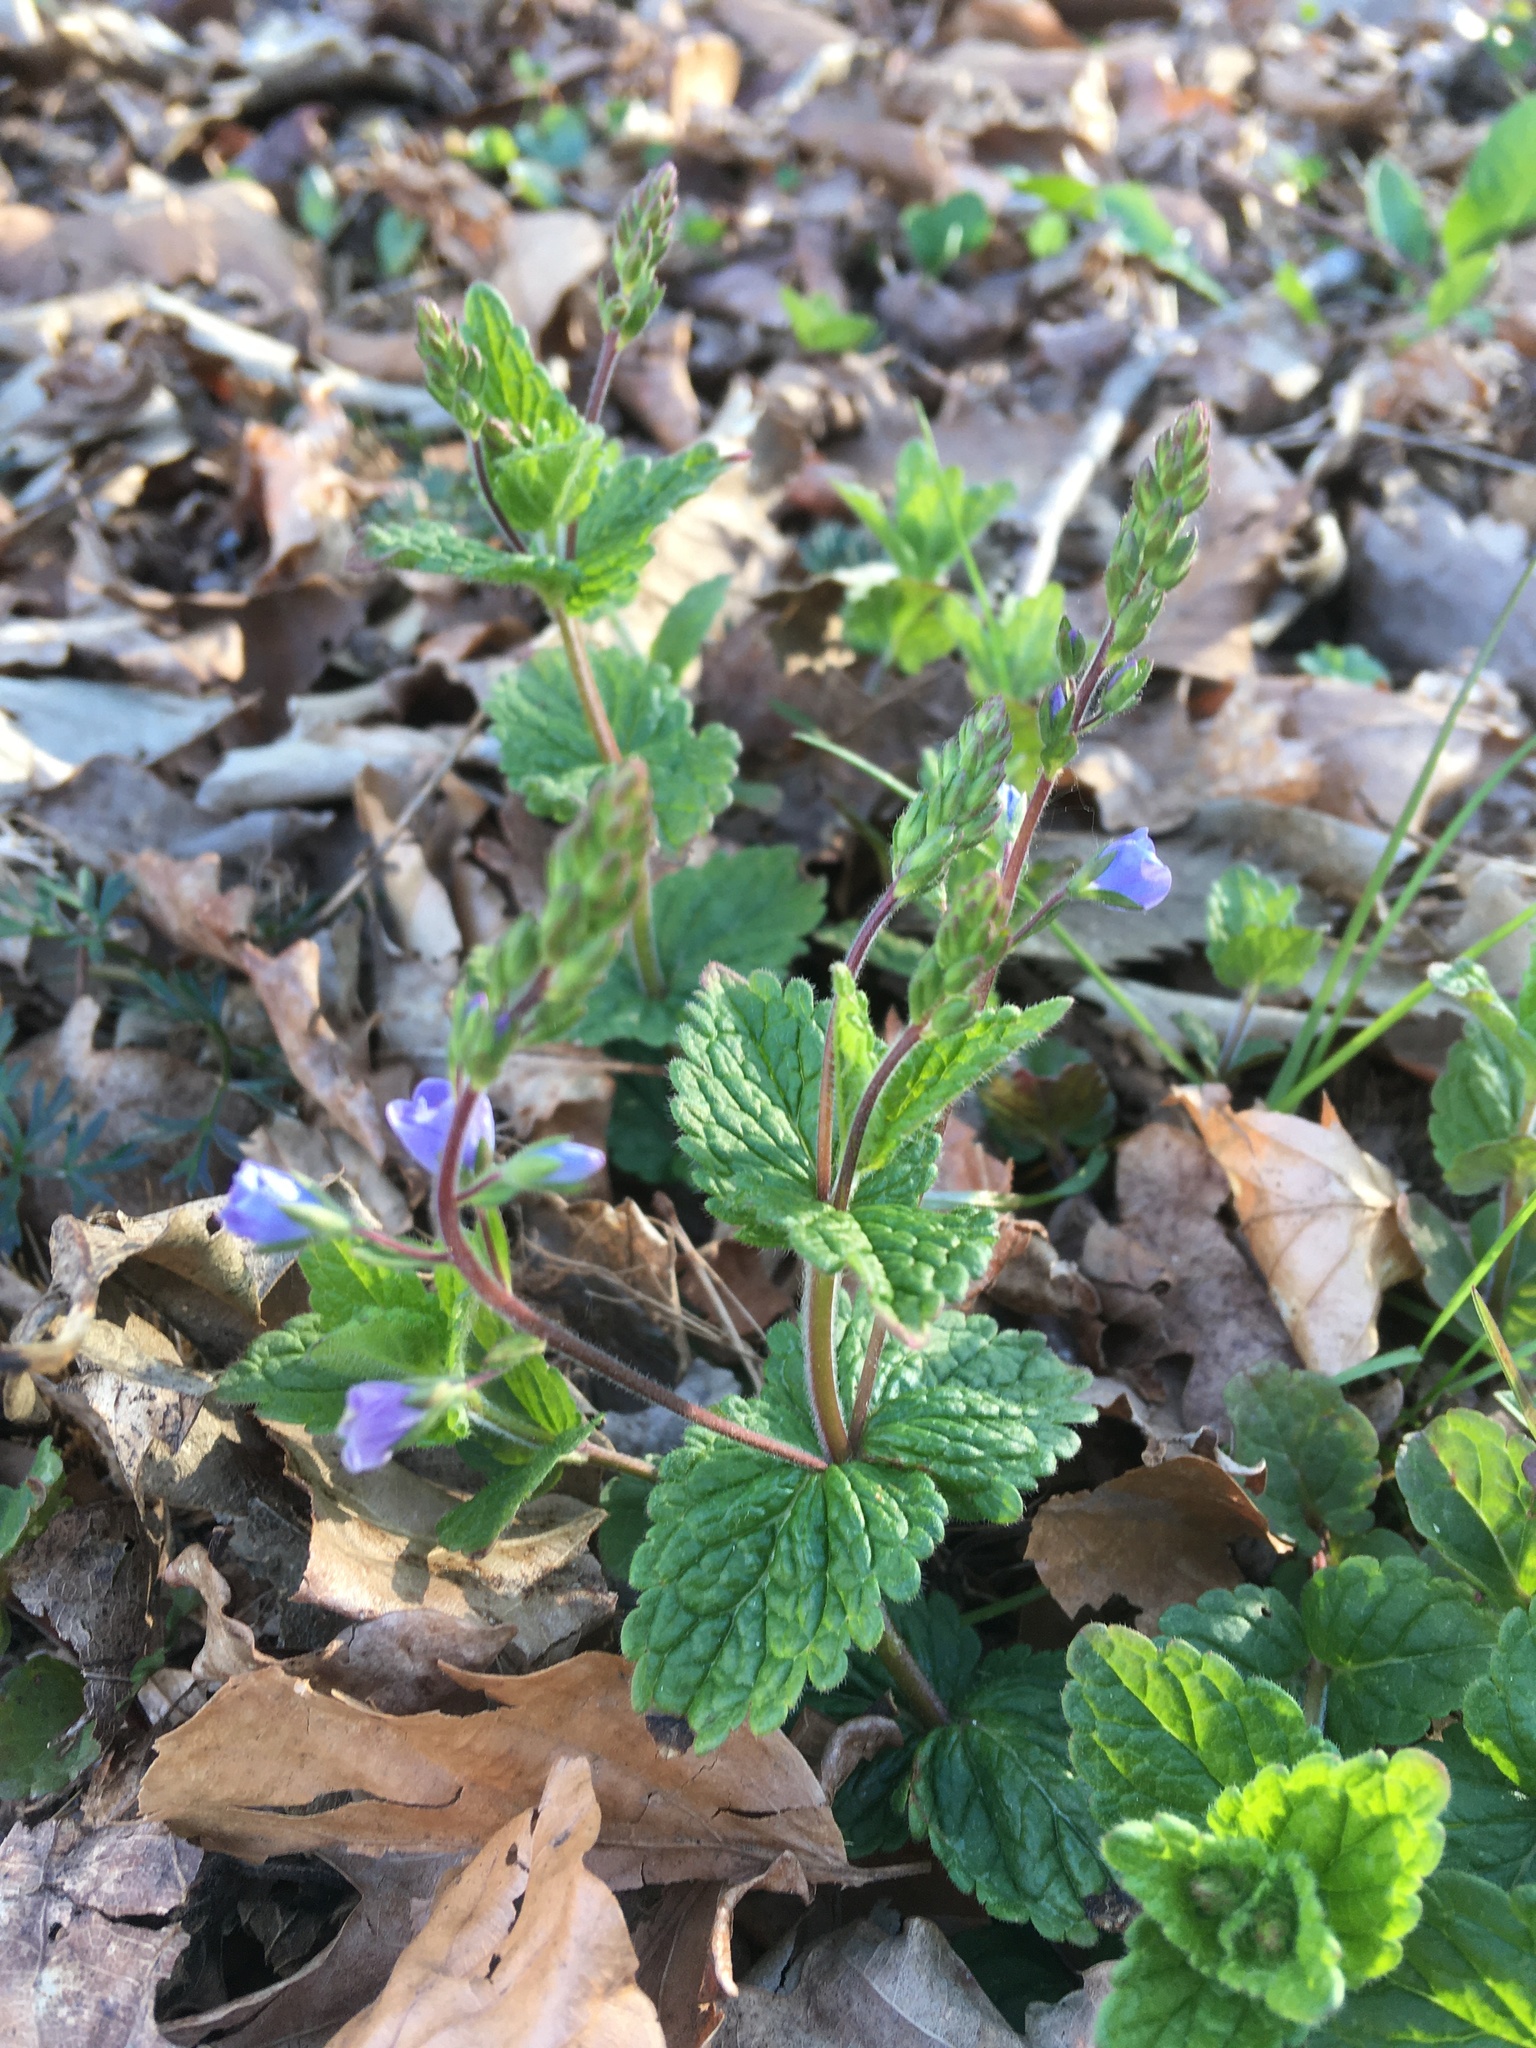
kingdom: Plantae
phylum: Tracheophyta
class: Magnoliopsida
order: Lamiales
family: Plantaginaceae
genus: Veronica
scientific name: Veronica chamaedrys
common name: Germander speedwell
